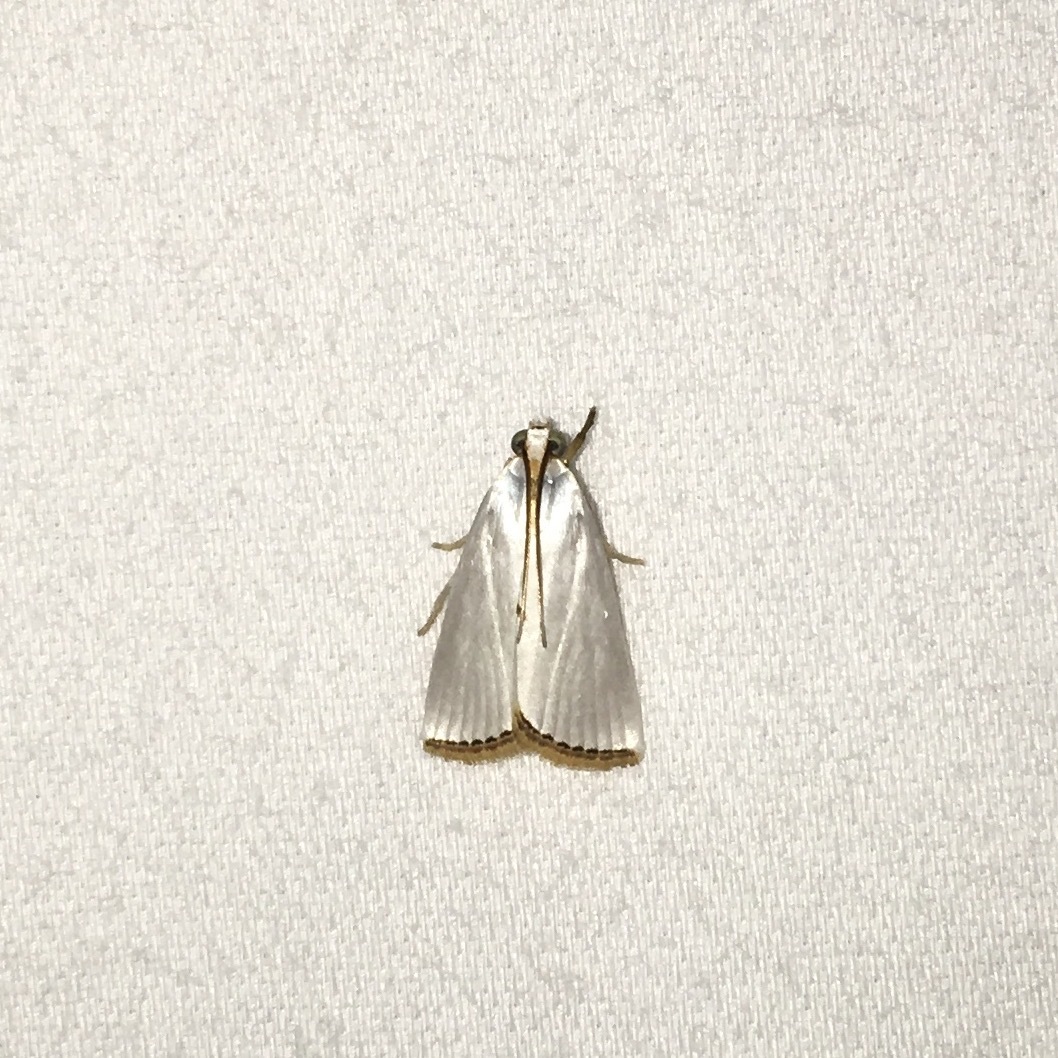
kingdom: Animalia
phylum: Arthropoda
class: Insecta
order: Lepidoptera
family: Crambidae
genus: Argyria
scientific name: Argyria nivalis
